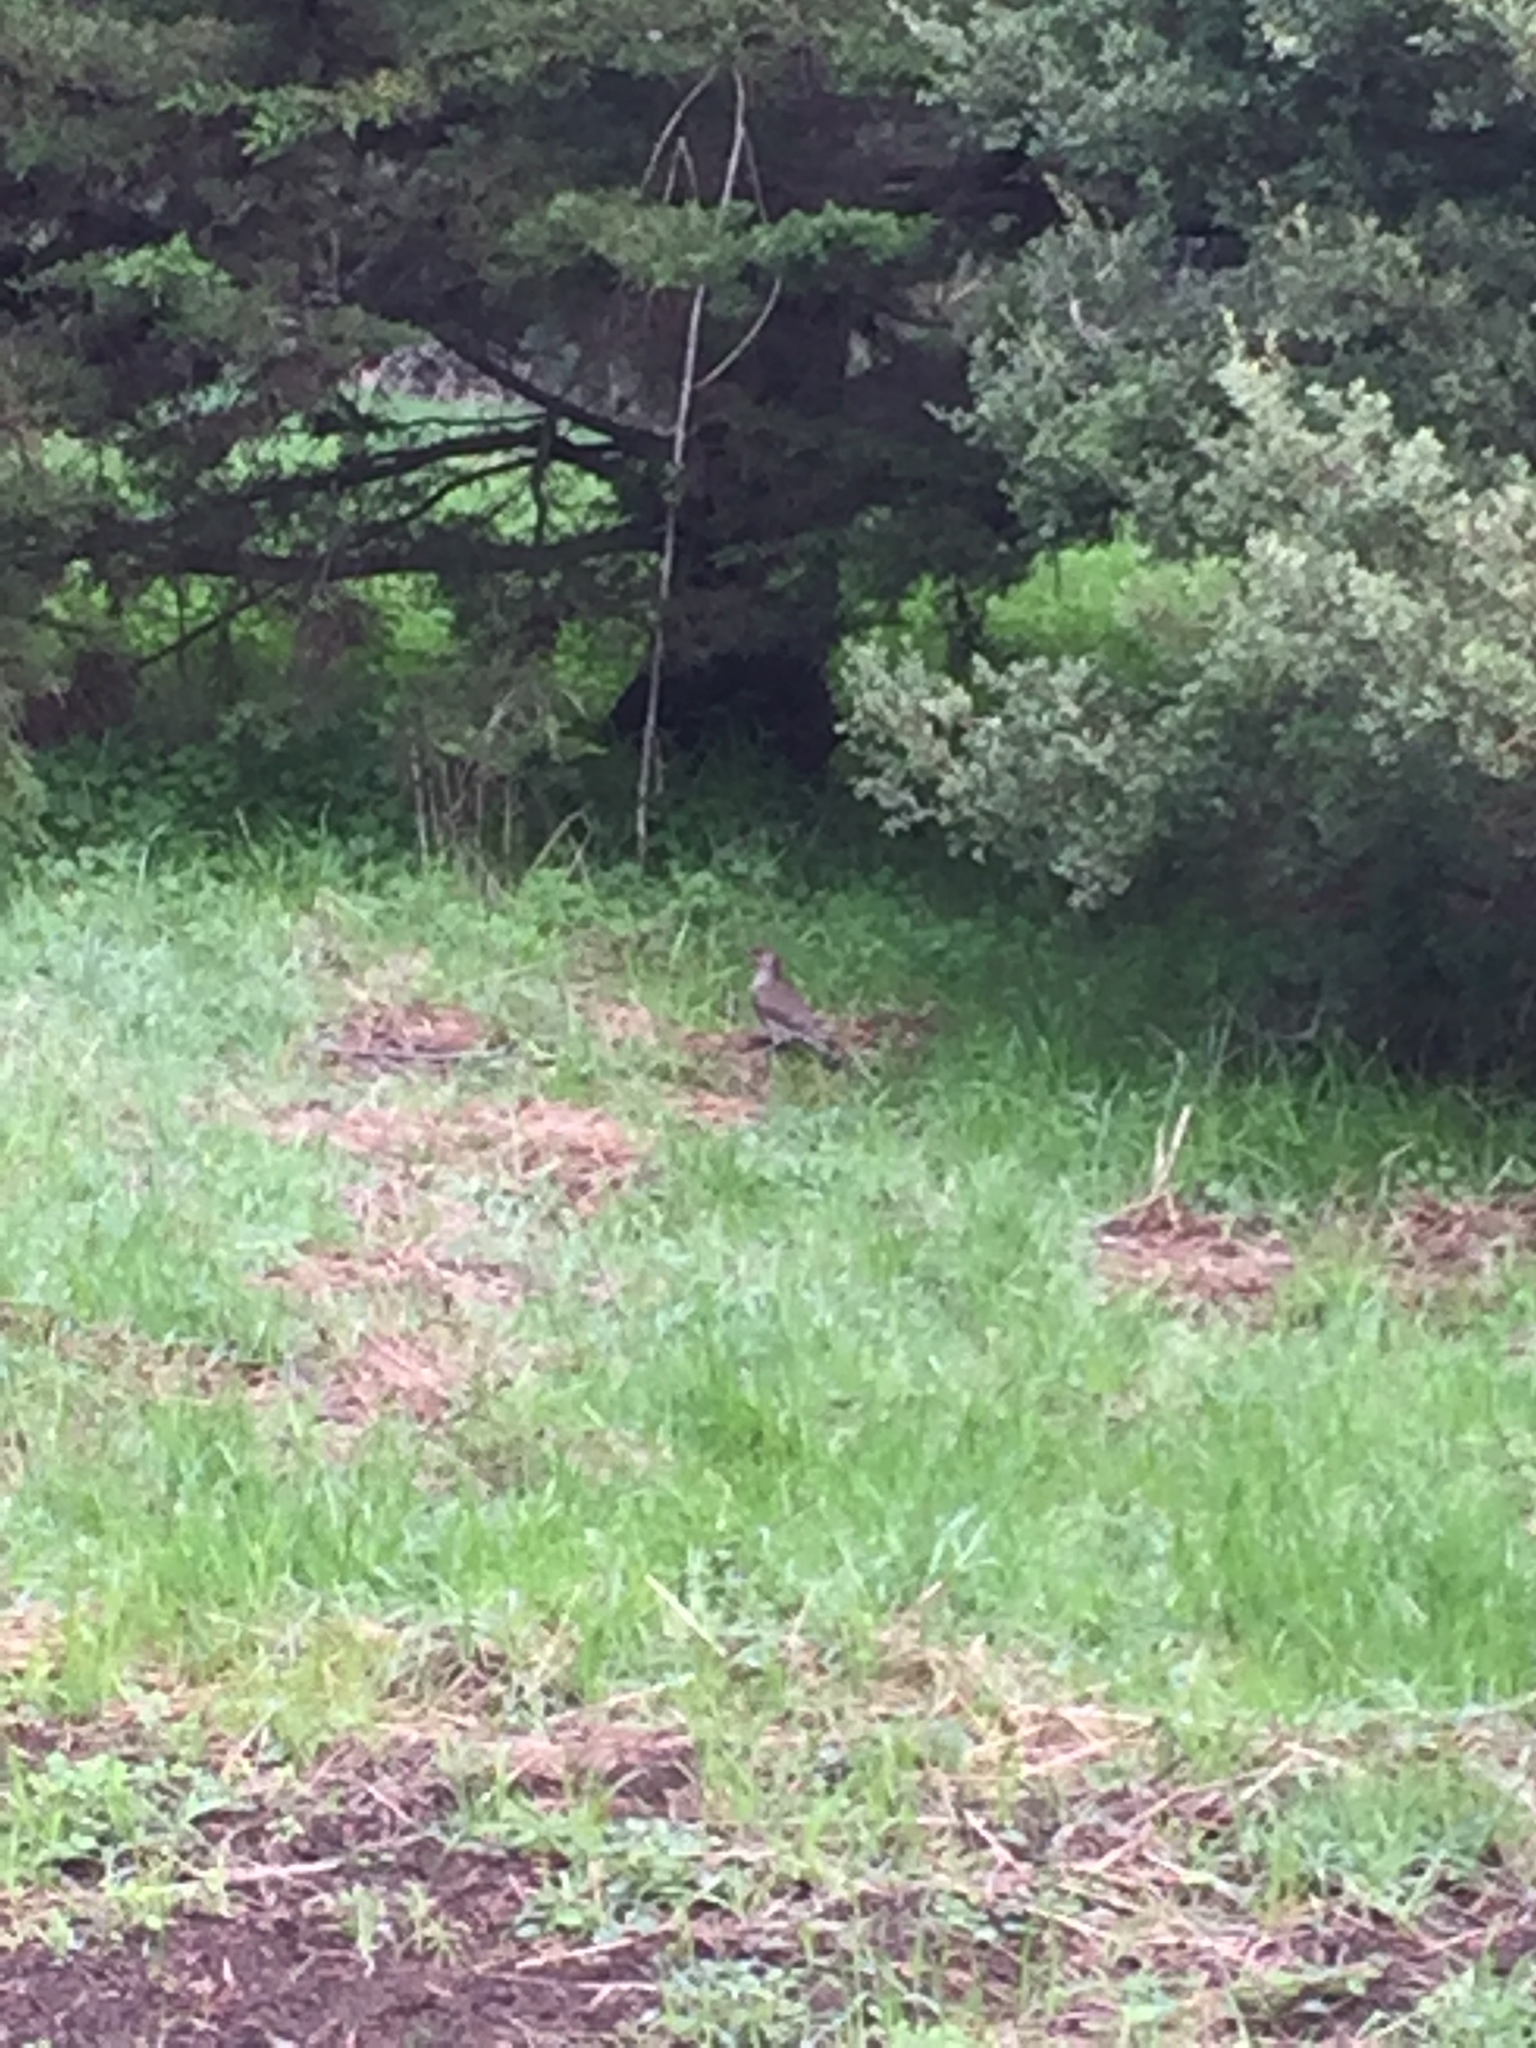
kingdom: Animalia
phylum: Chordata
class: Aves
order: Piciformes
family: Picidae
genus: Colaptes
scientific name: Colaptes auratus
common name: Northern flicker
